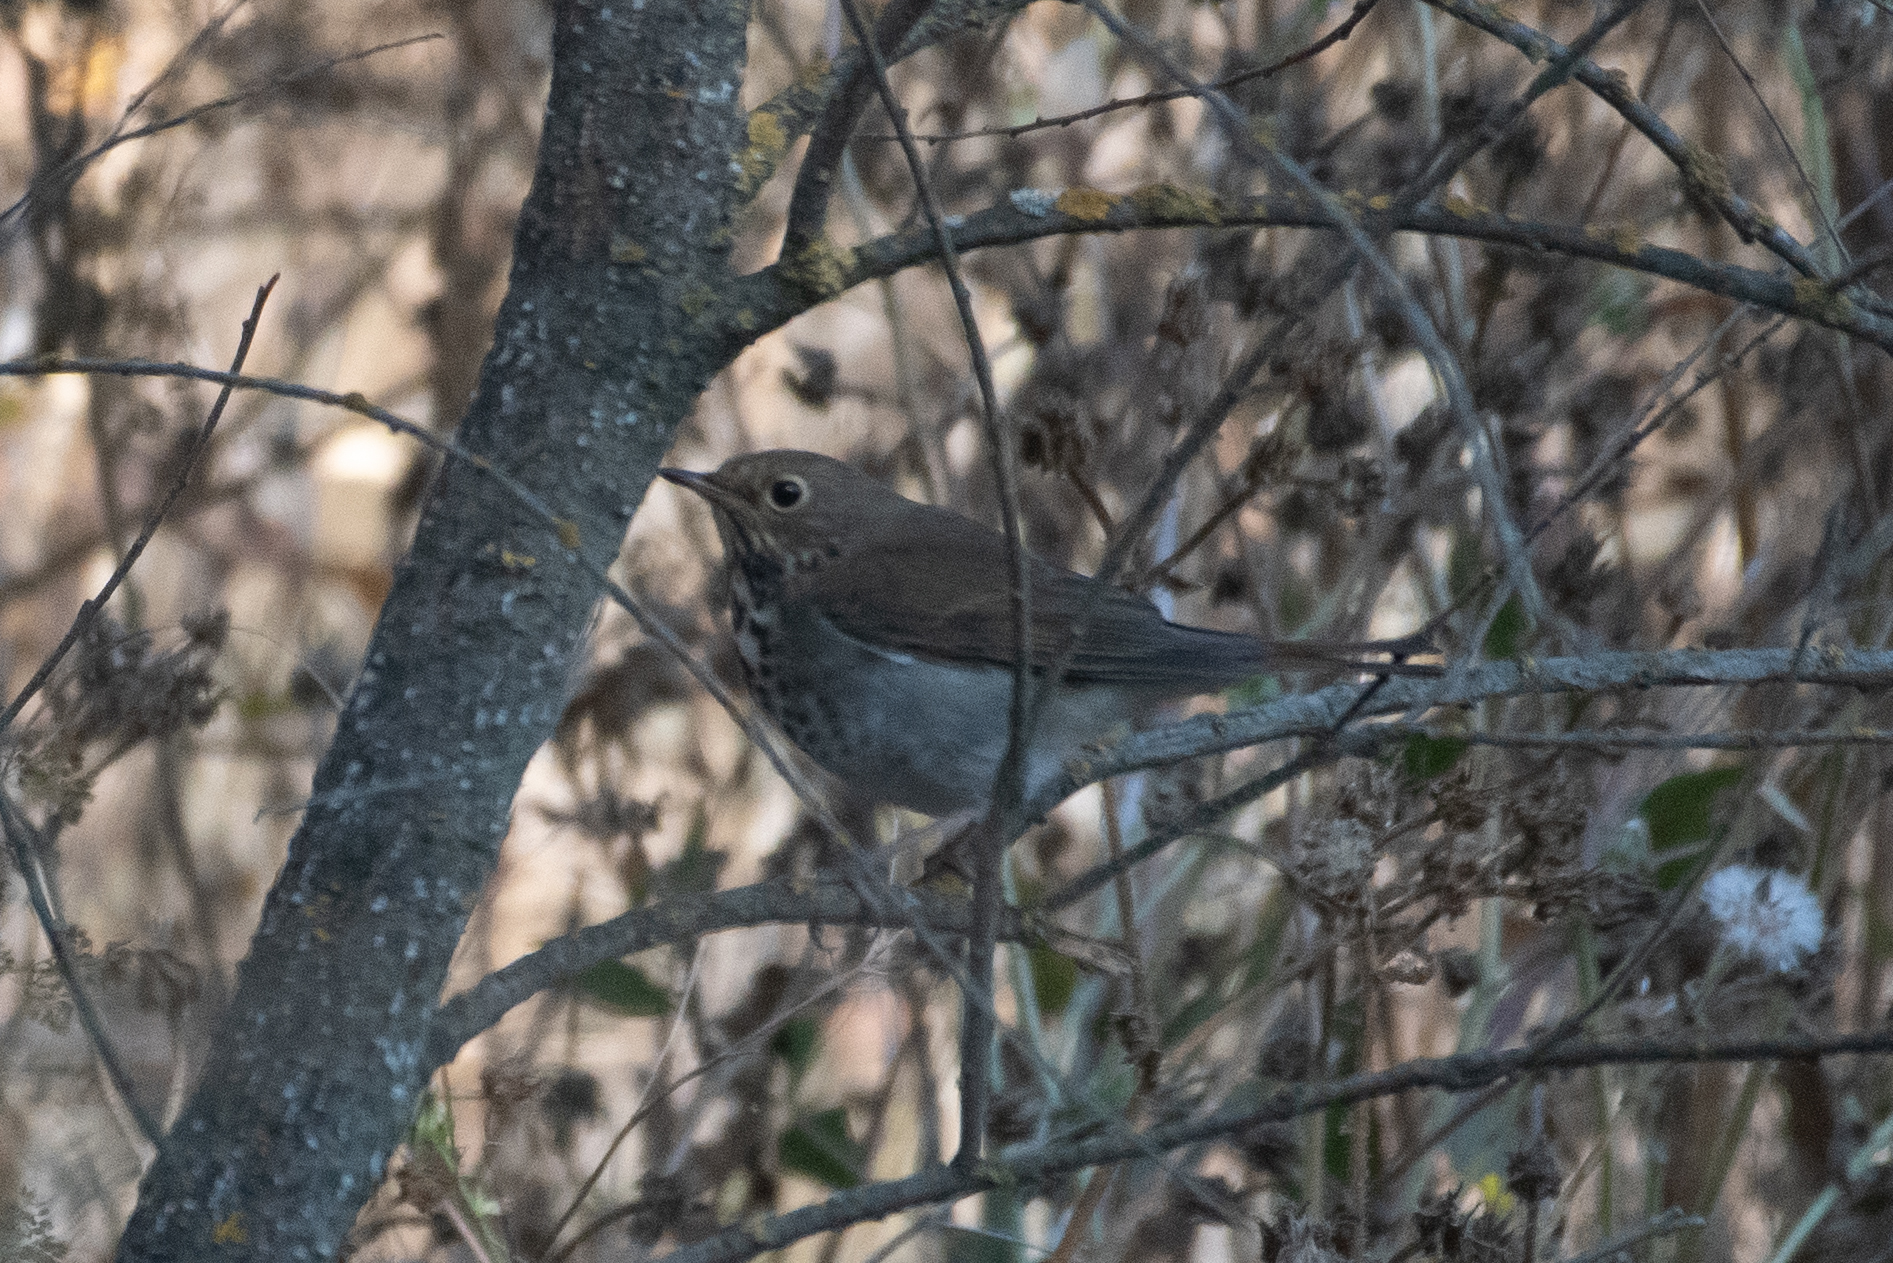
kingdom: Animalia
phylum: Chordata
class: Aves
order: Passeriformes
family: Turdidae
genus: Catharus
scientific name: Catharus guttatus
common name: Hermit thrush
